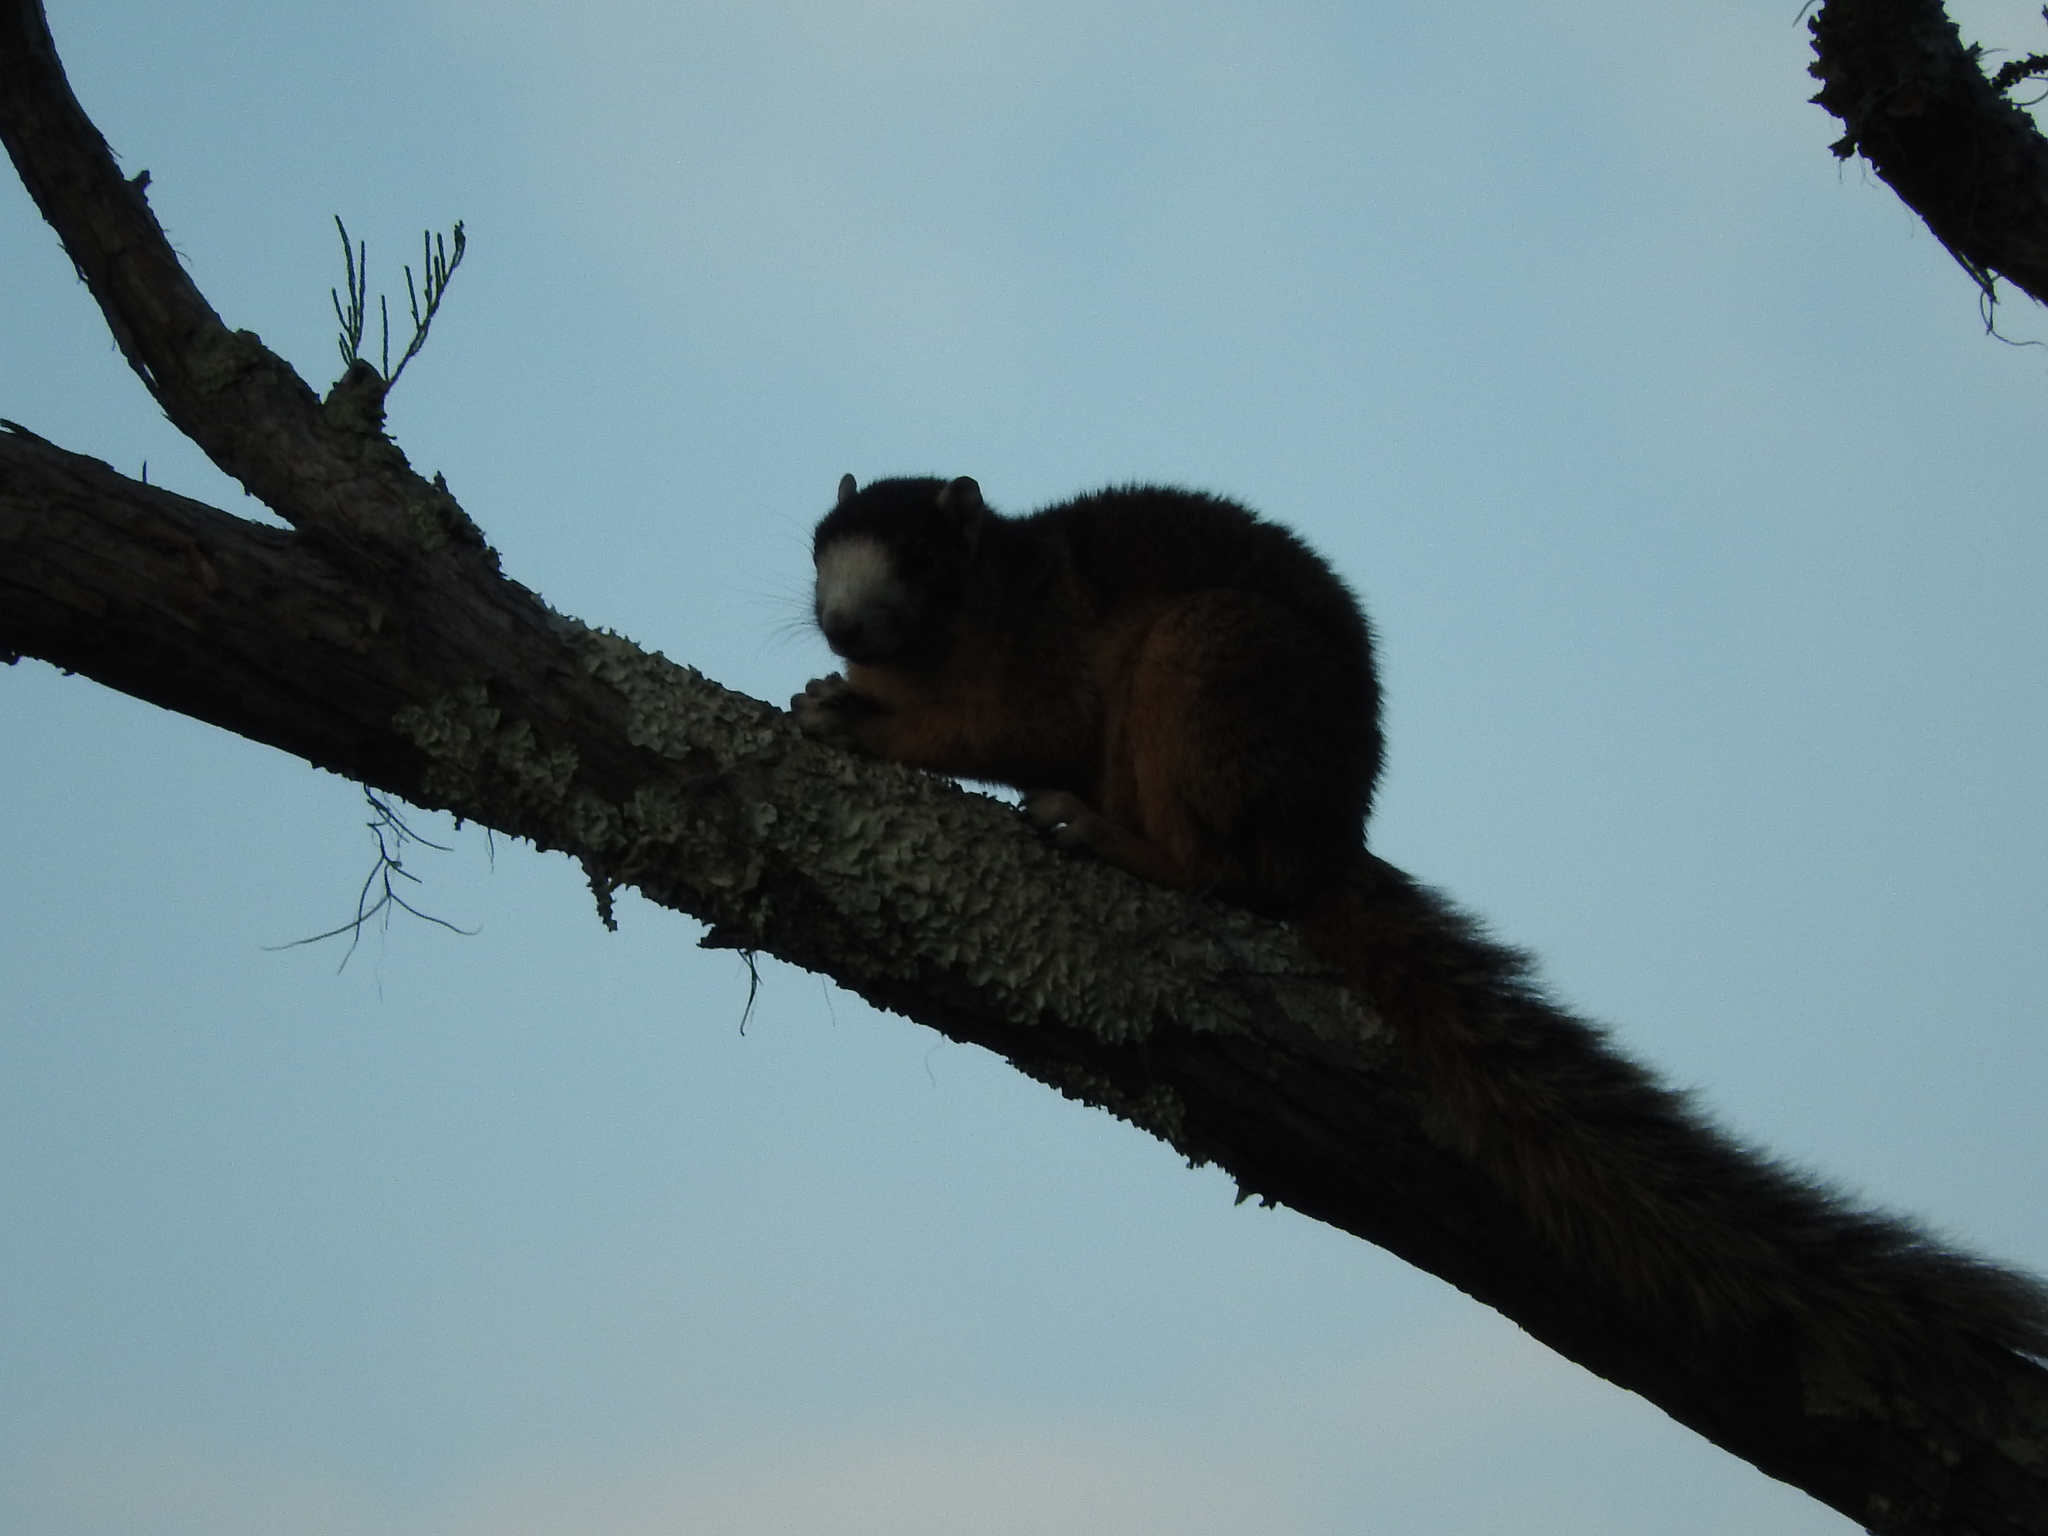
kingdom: Animalia
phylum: Chordata
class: Mammalia
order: Rodentia
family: Sciuridae
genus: Sciurus
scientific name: Sciurus niger
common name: Fox squirrel
